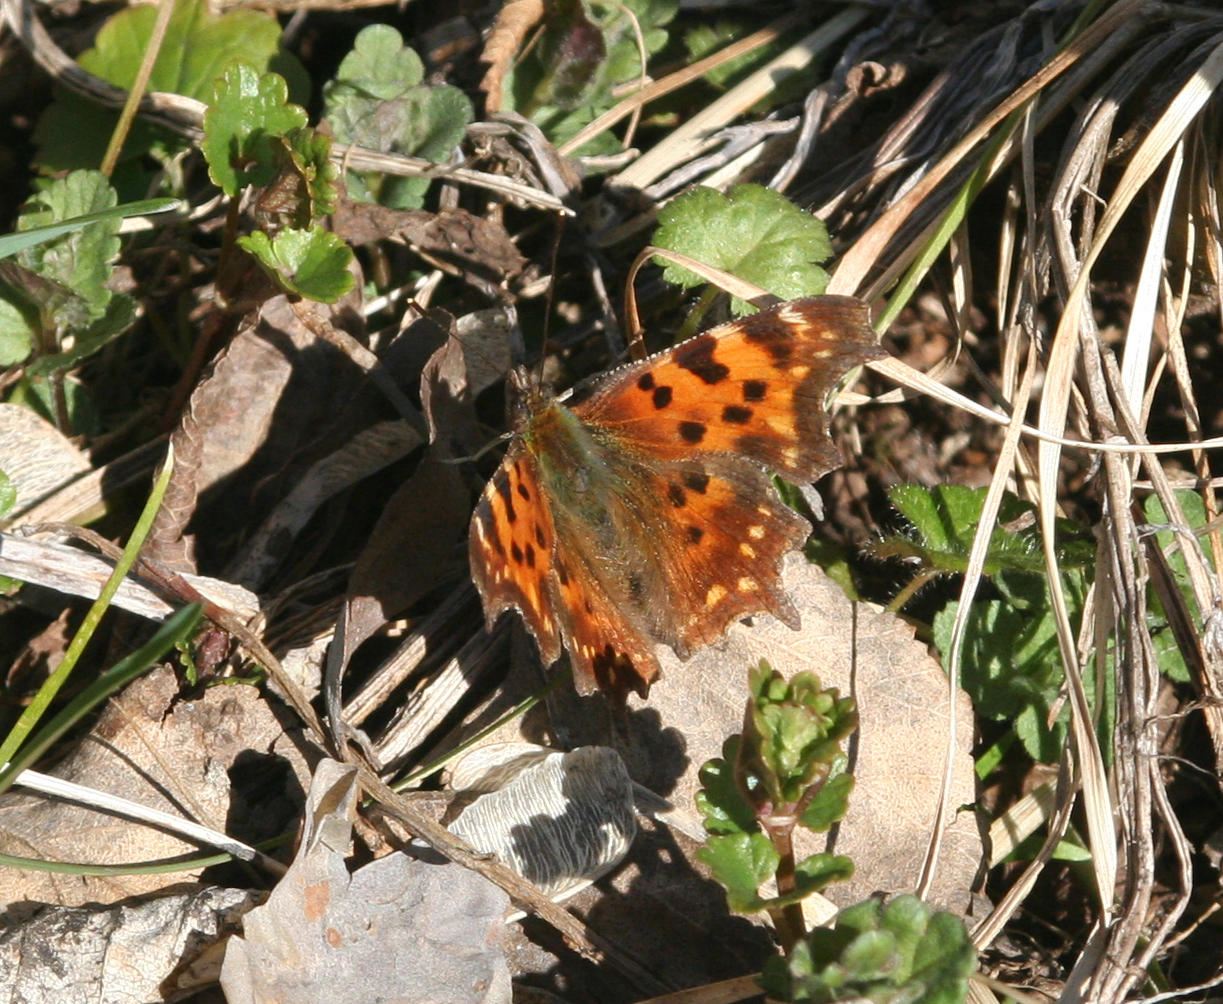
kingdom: Animalia
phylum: Arthropoda
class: Insecta
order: Lepidoptera
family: Nymphalidae
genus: Polygonia
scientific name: Polygonia c-album
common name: Comma
